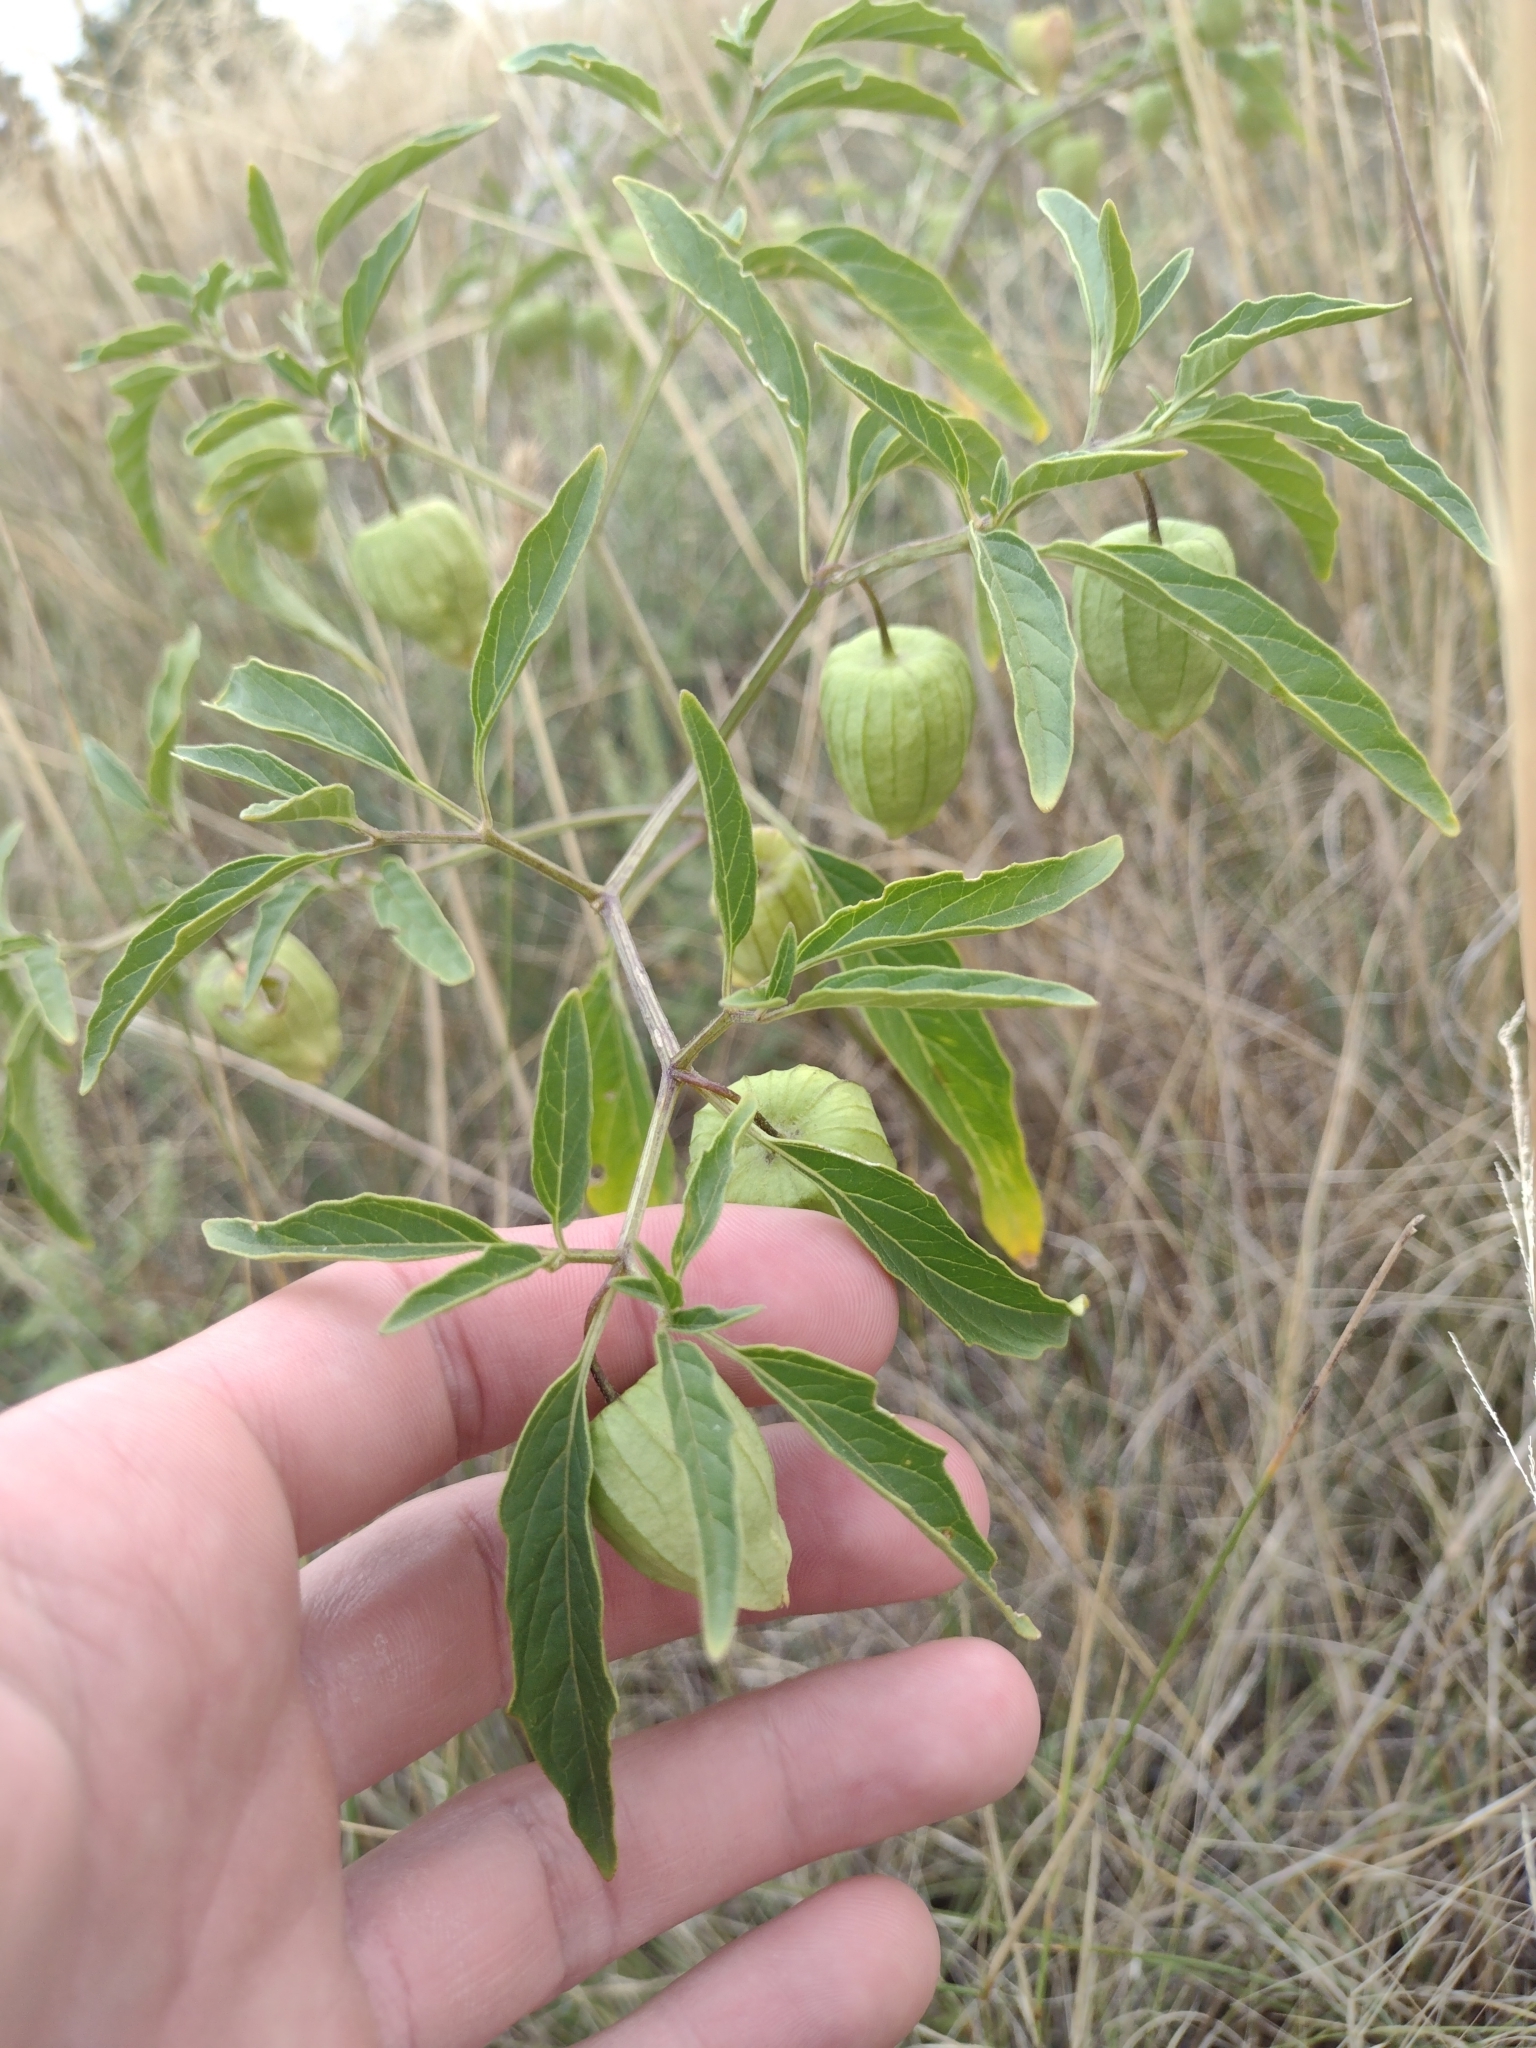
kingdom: Plantae
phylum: Tracheophyta
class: Magnoliopsida
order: Solanales
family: Solanaceae
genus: Physalis
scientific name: Physalis longifolia
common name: Common ground-cherry
